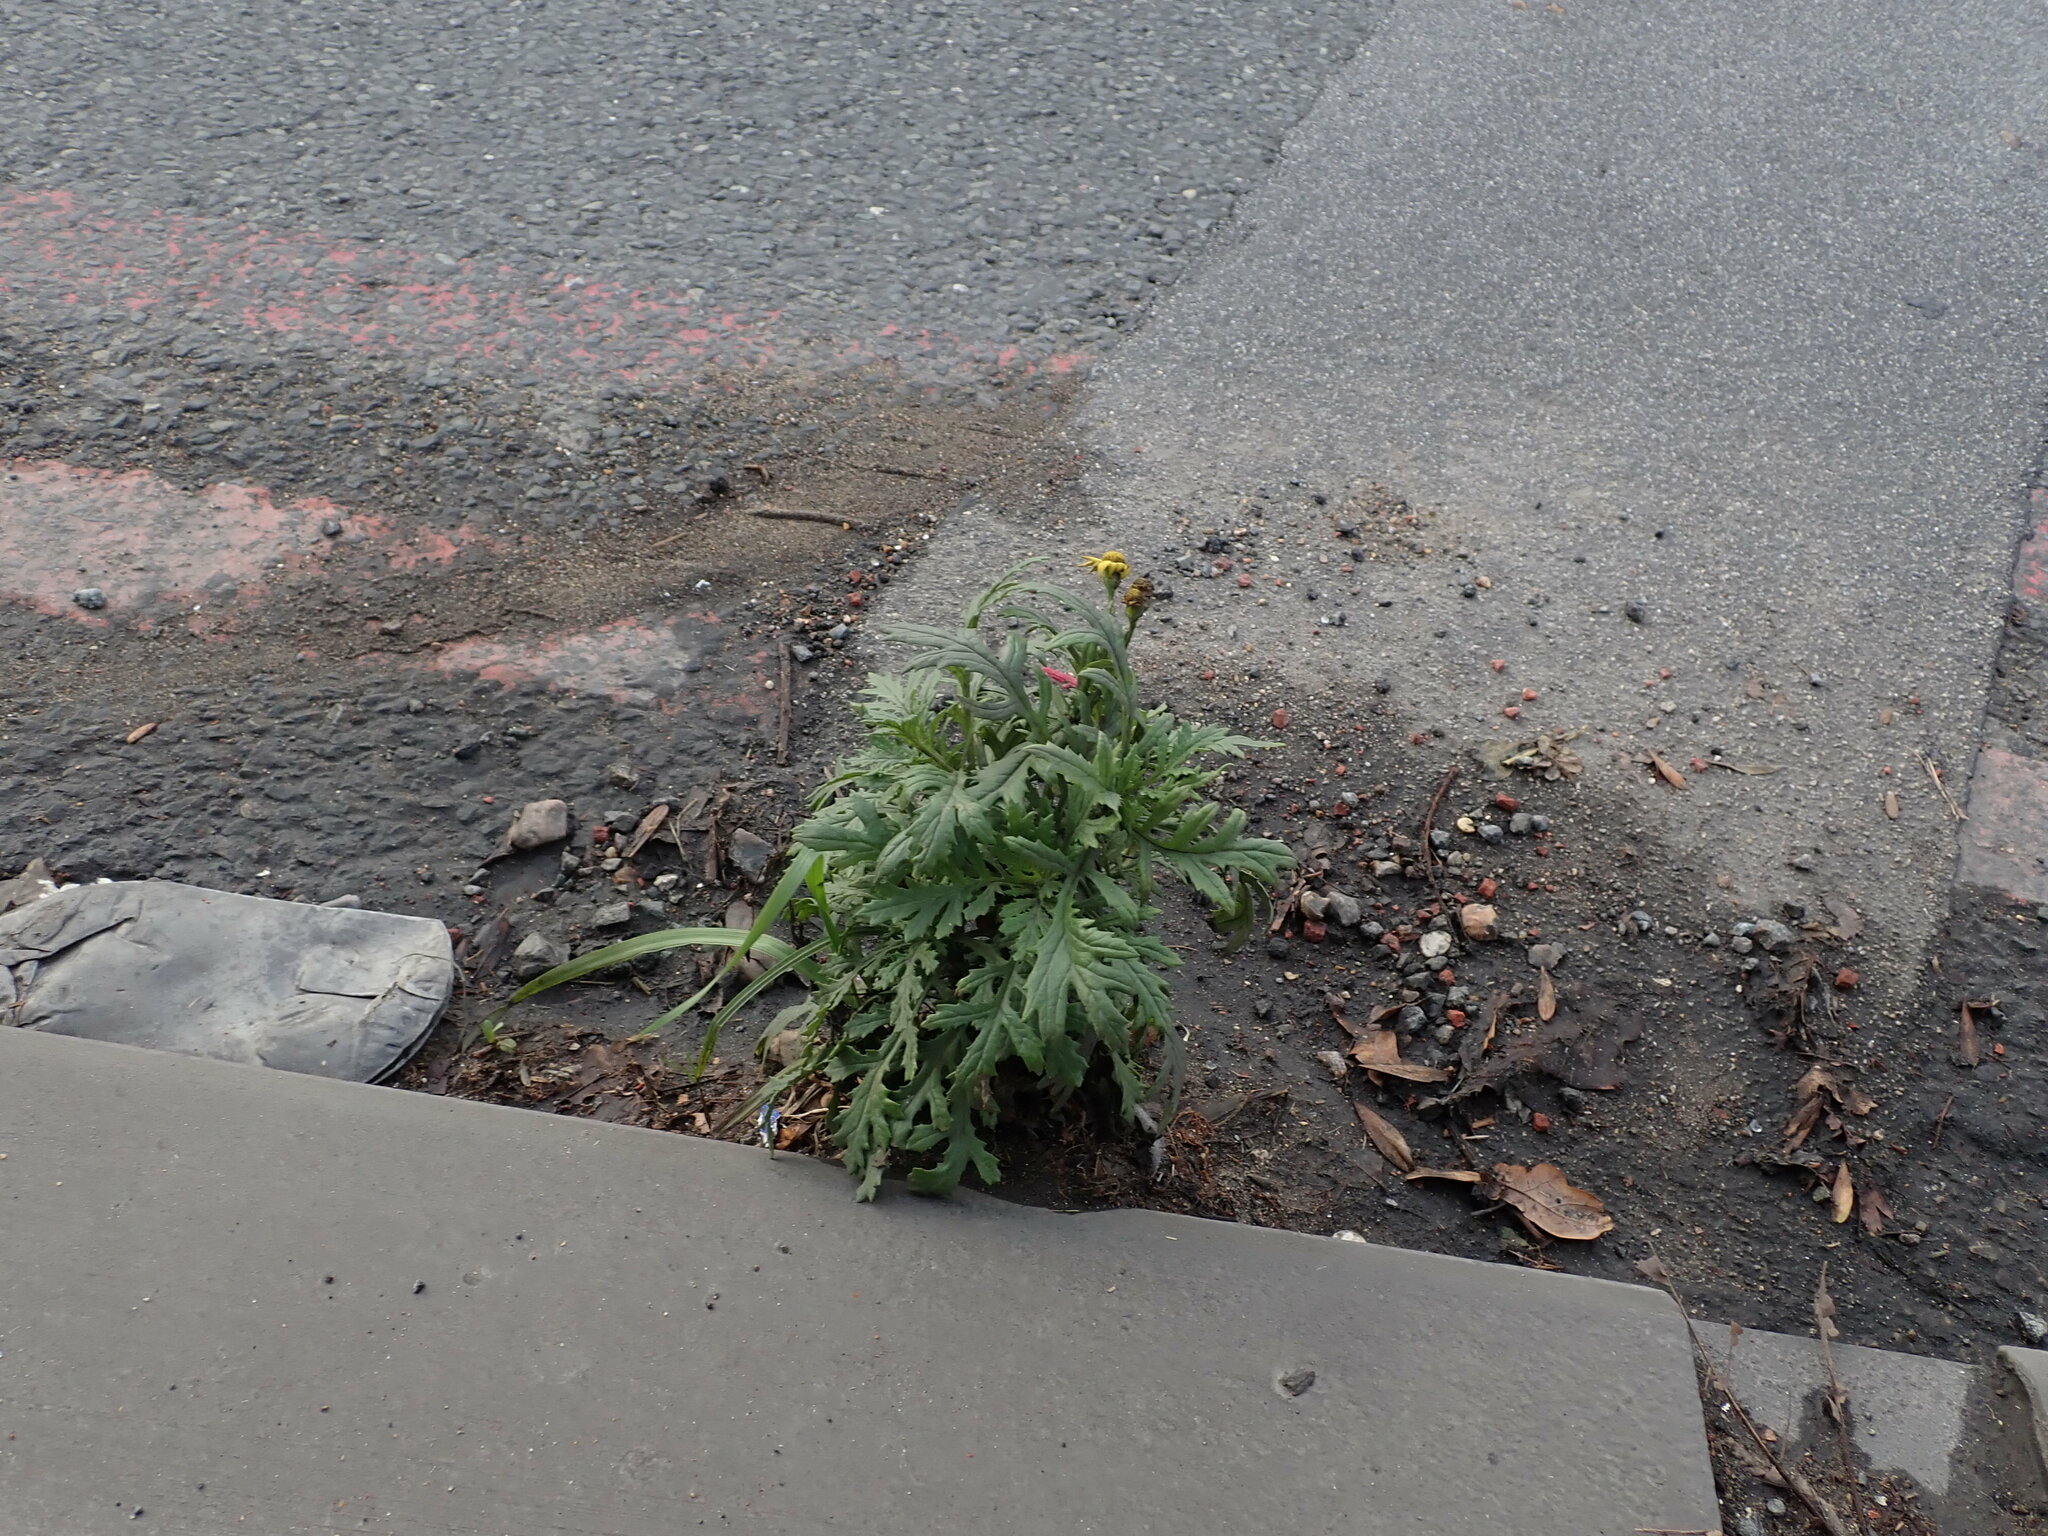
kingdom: Plantae
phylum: Tracheophyta
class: Magnoliopsida
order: Asterales
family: Asteraceae
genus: Senecio
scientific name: Senecio squalidus
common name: Oxford ragwort
